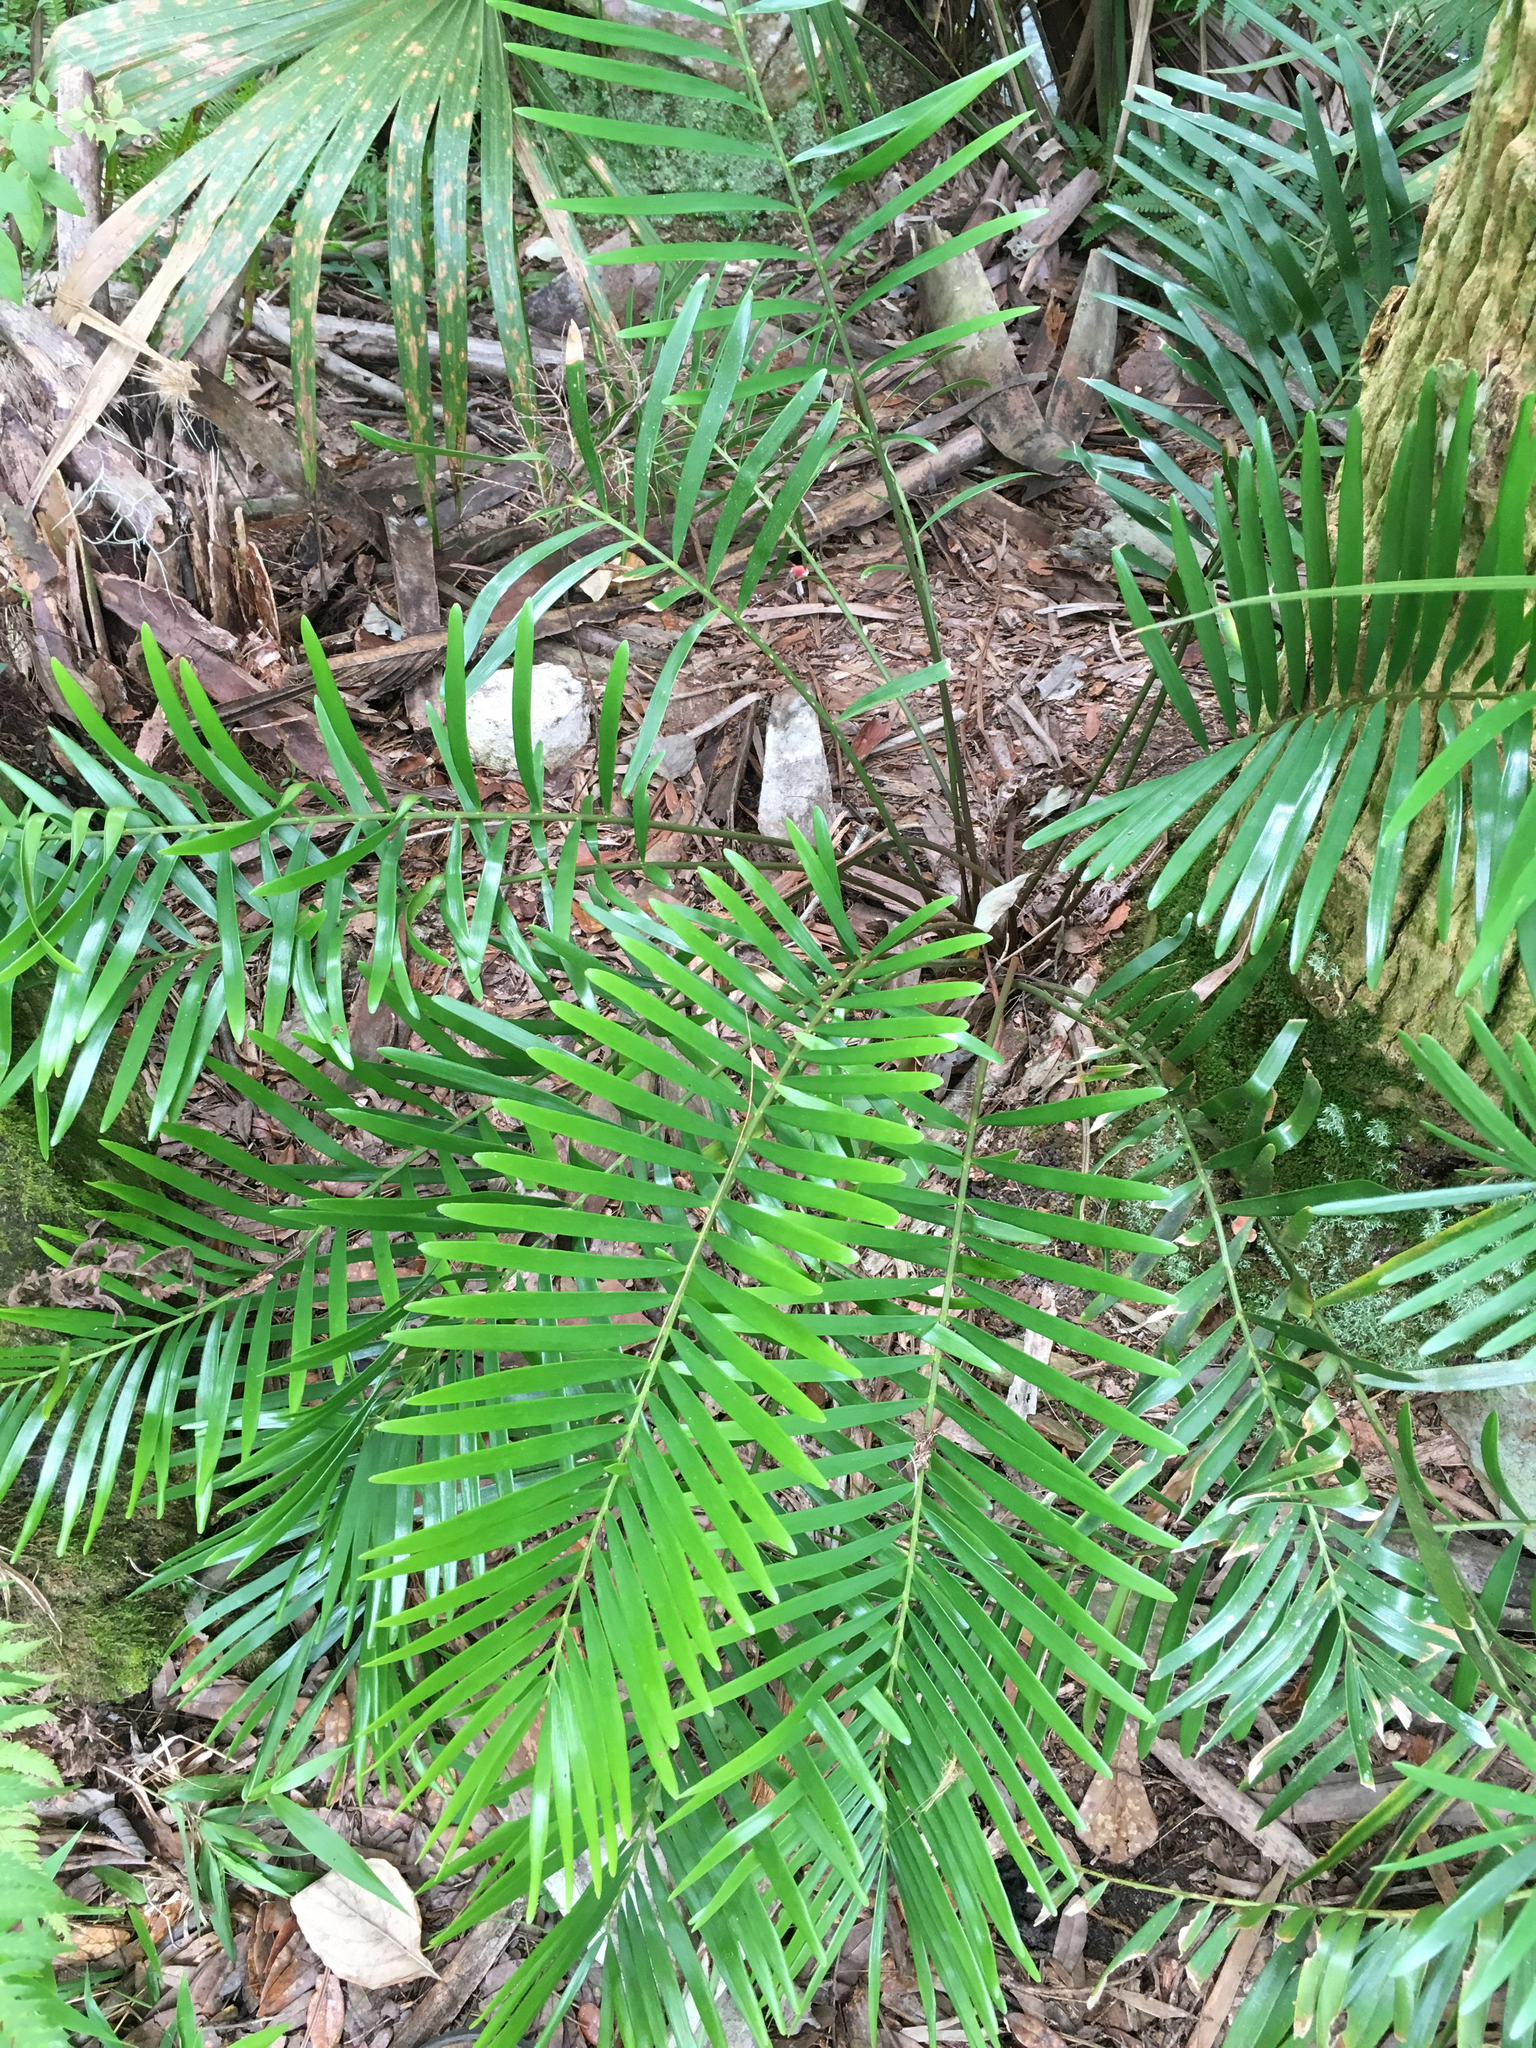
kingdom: Plantae
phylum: Tracheophyta
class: Cycadopsida
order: Cycadales
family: Zamiaceae
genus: Zamia
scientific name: Zamia integrifolia
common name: Florida arrowroot
